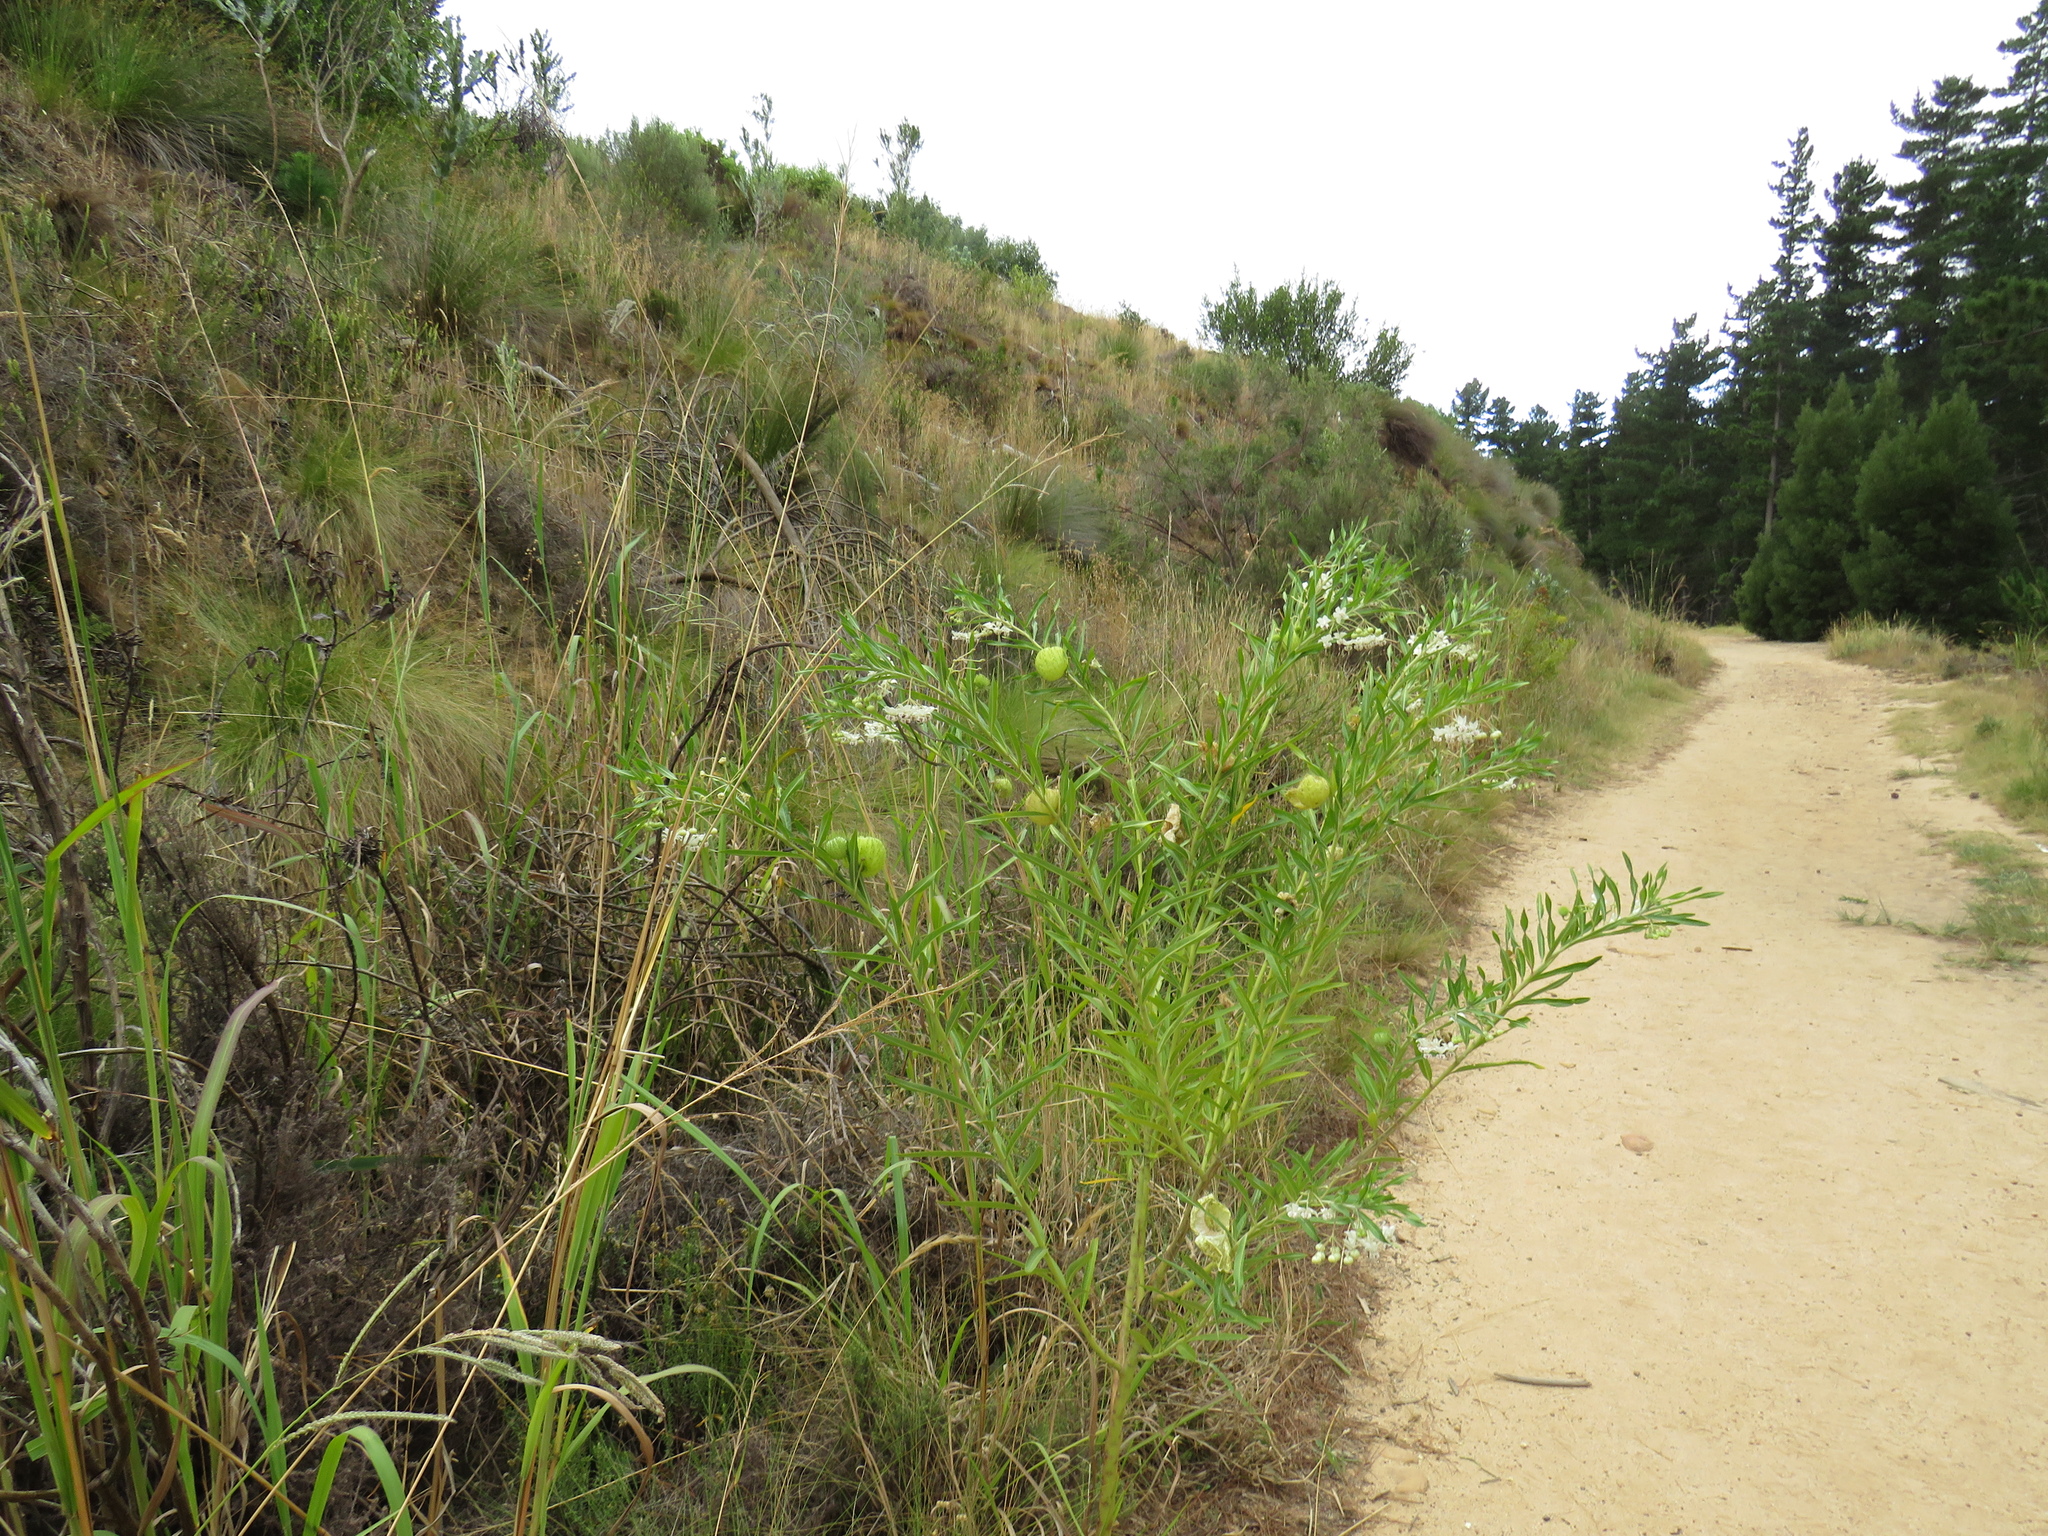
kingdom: Plantae
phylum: Tracheophyta
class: Magnoliopsida
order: Gentianales
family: Apocynaceae
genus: Gomphocarpus
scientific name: Gomphocarpus physocarpus
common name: Balloon cotton bush
